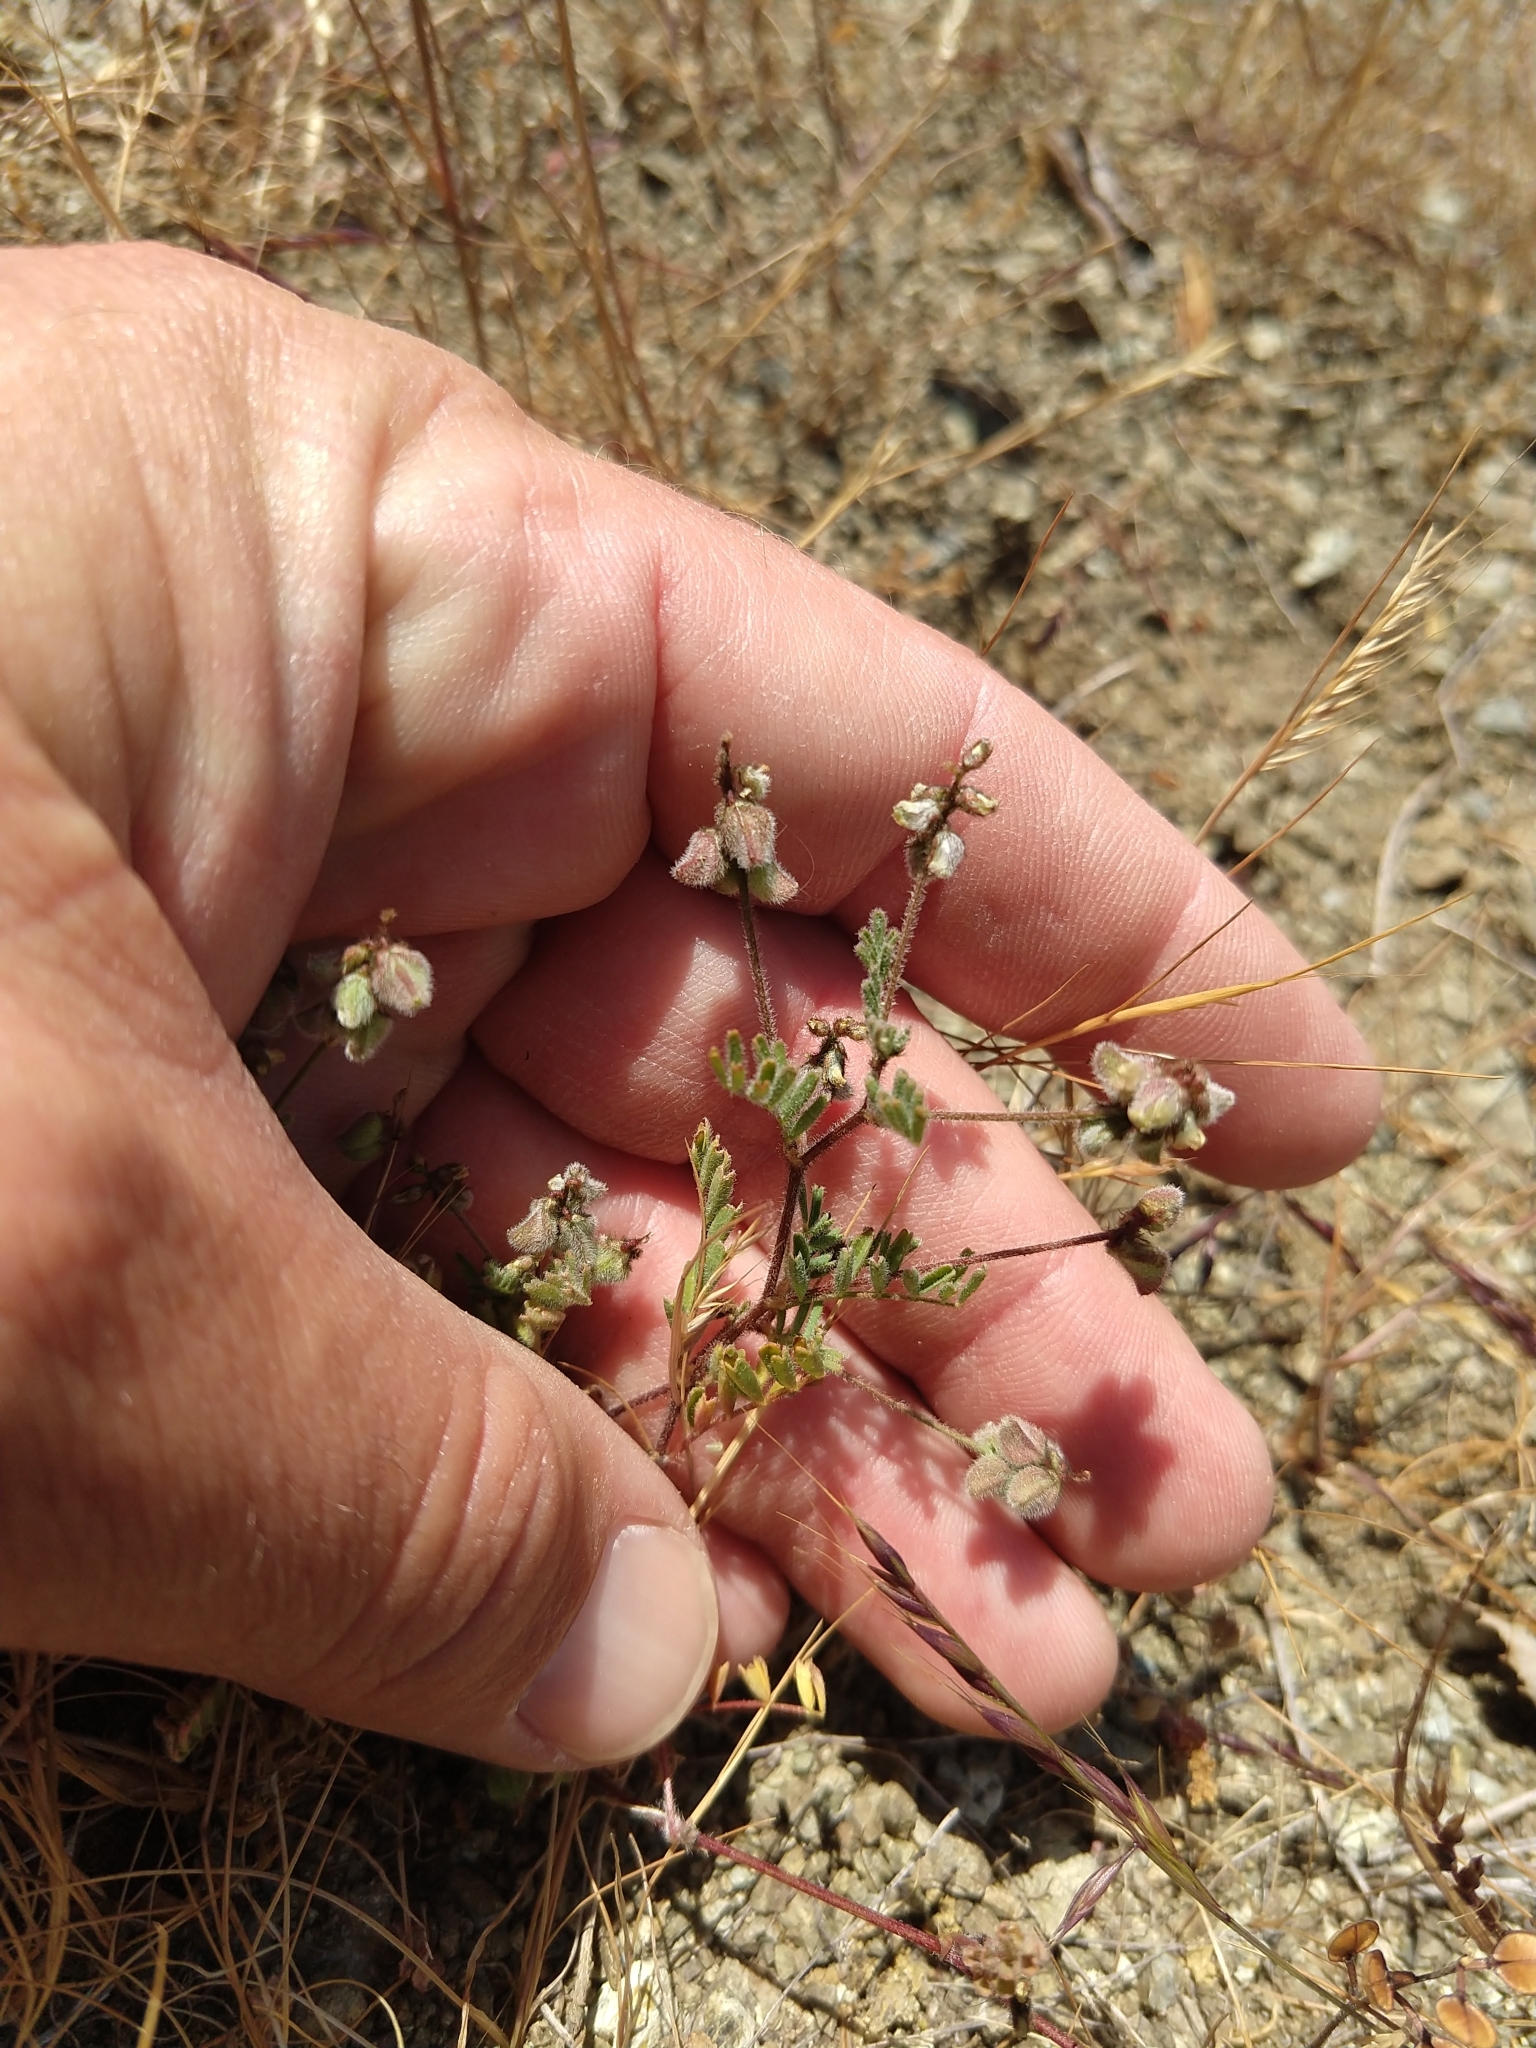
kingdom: Plantae
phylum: Tracheophyta
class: Magnoliopsida
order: Fabales
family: Fabaceae
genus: Astragalus
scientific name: Astragalus gambelianus
